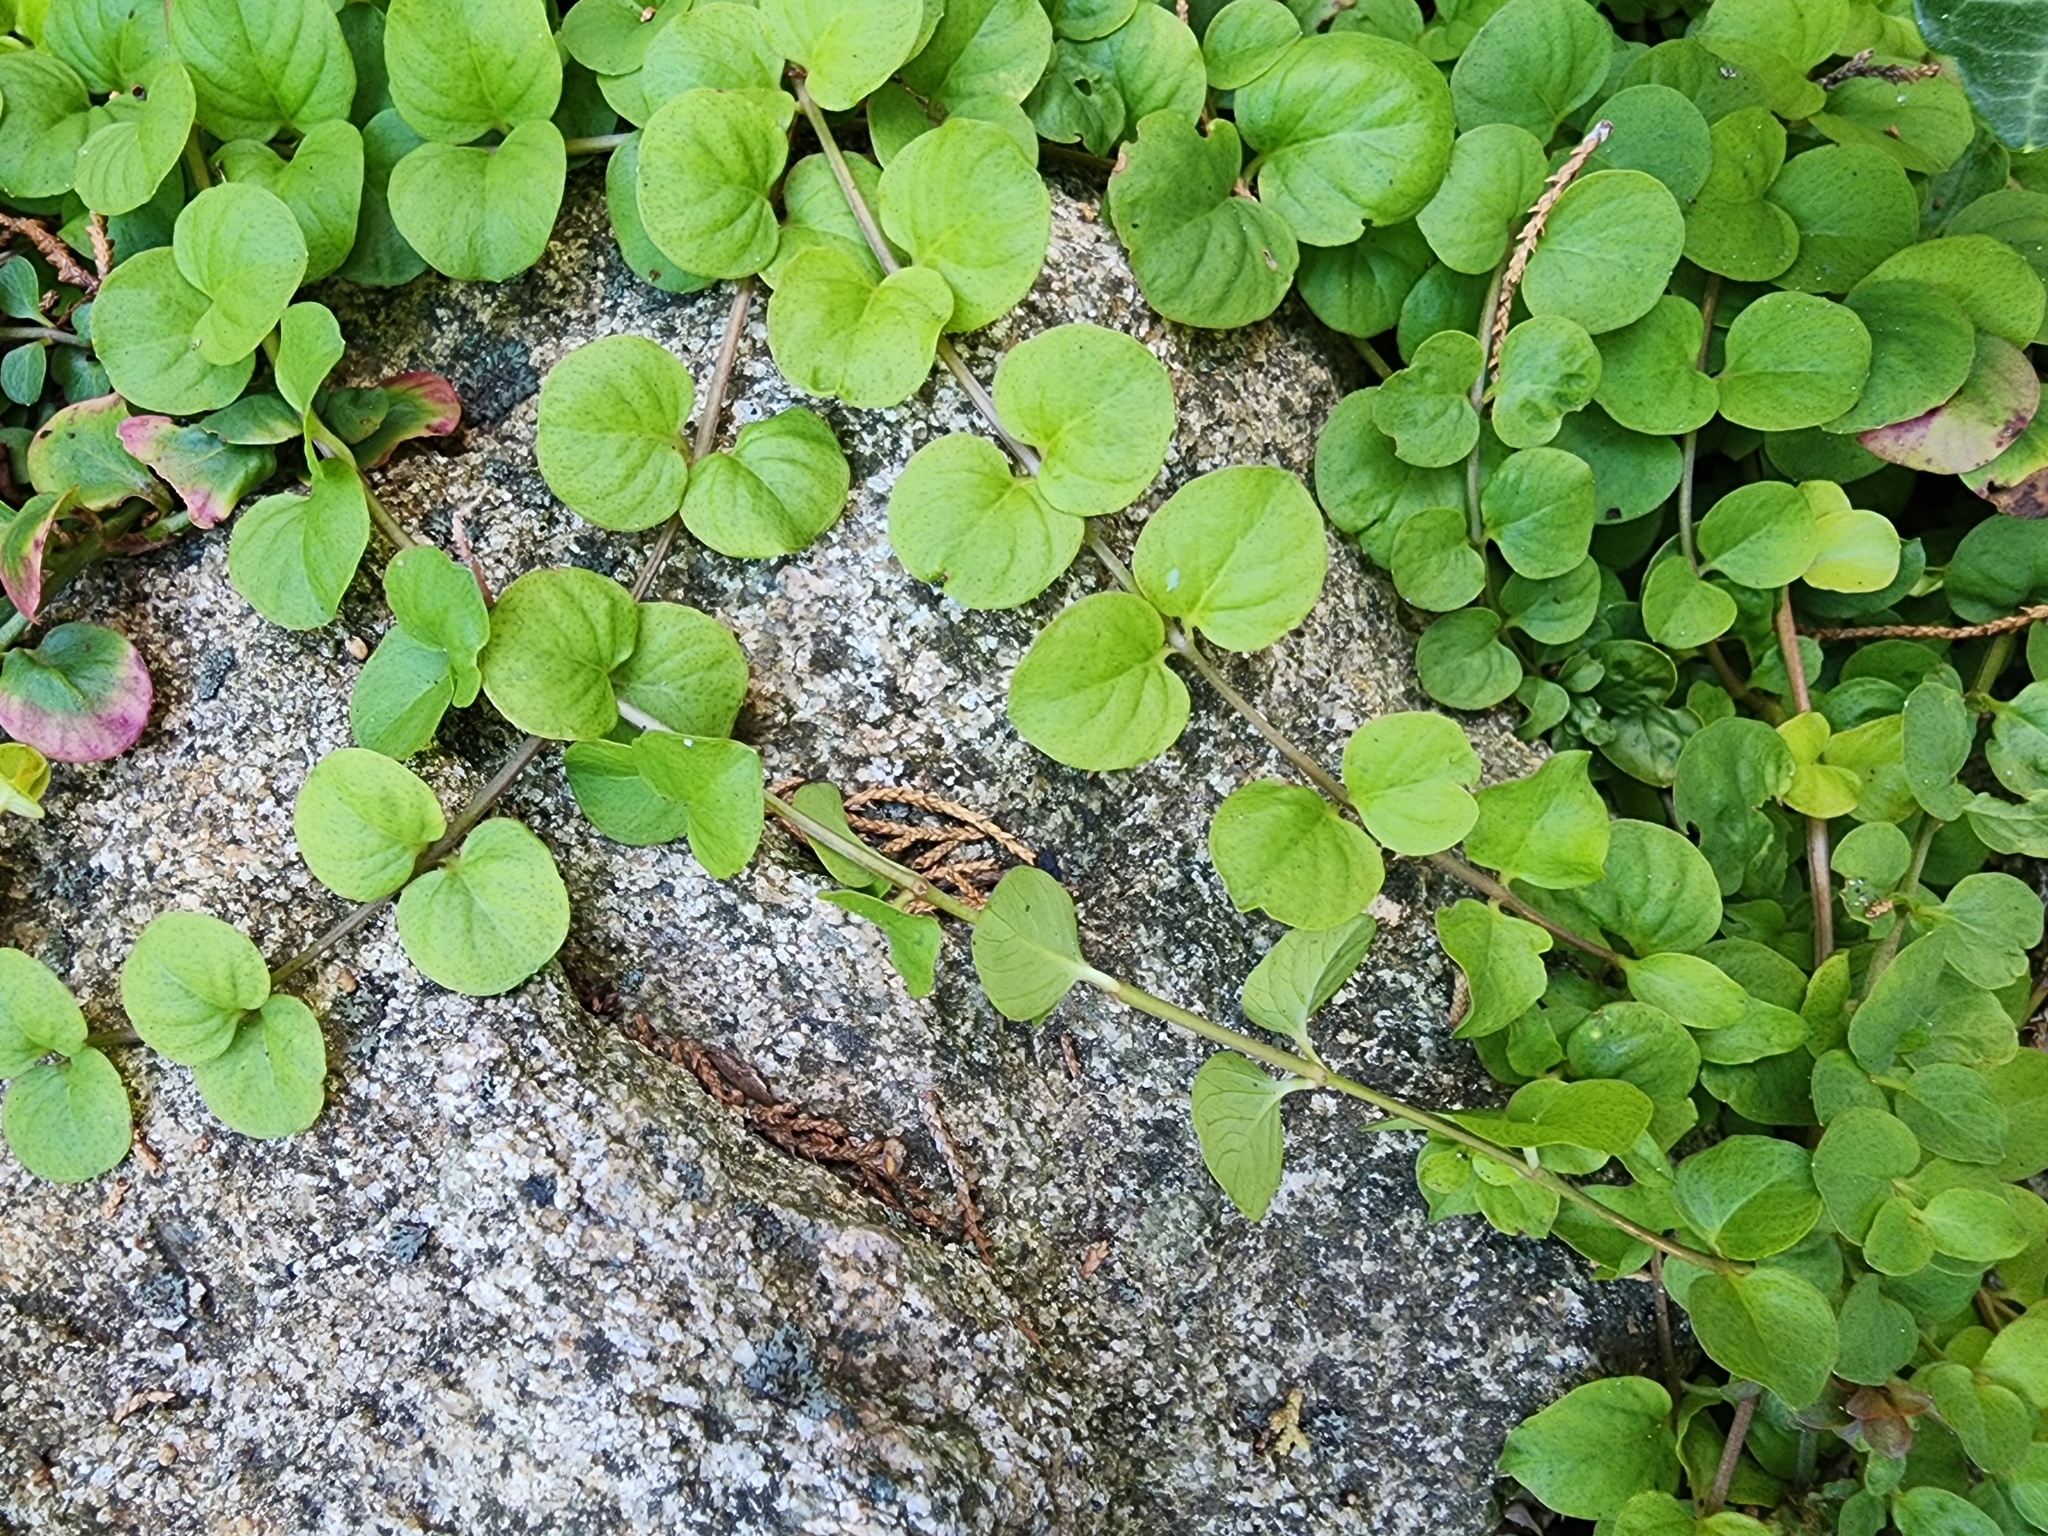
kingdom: Plantae
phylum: Tracheophyta
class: Magnoliopsida
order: Ericales
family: Primulaceae
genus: Lysimachia
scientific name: Lysimachia nummularia
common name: Moneywort
